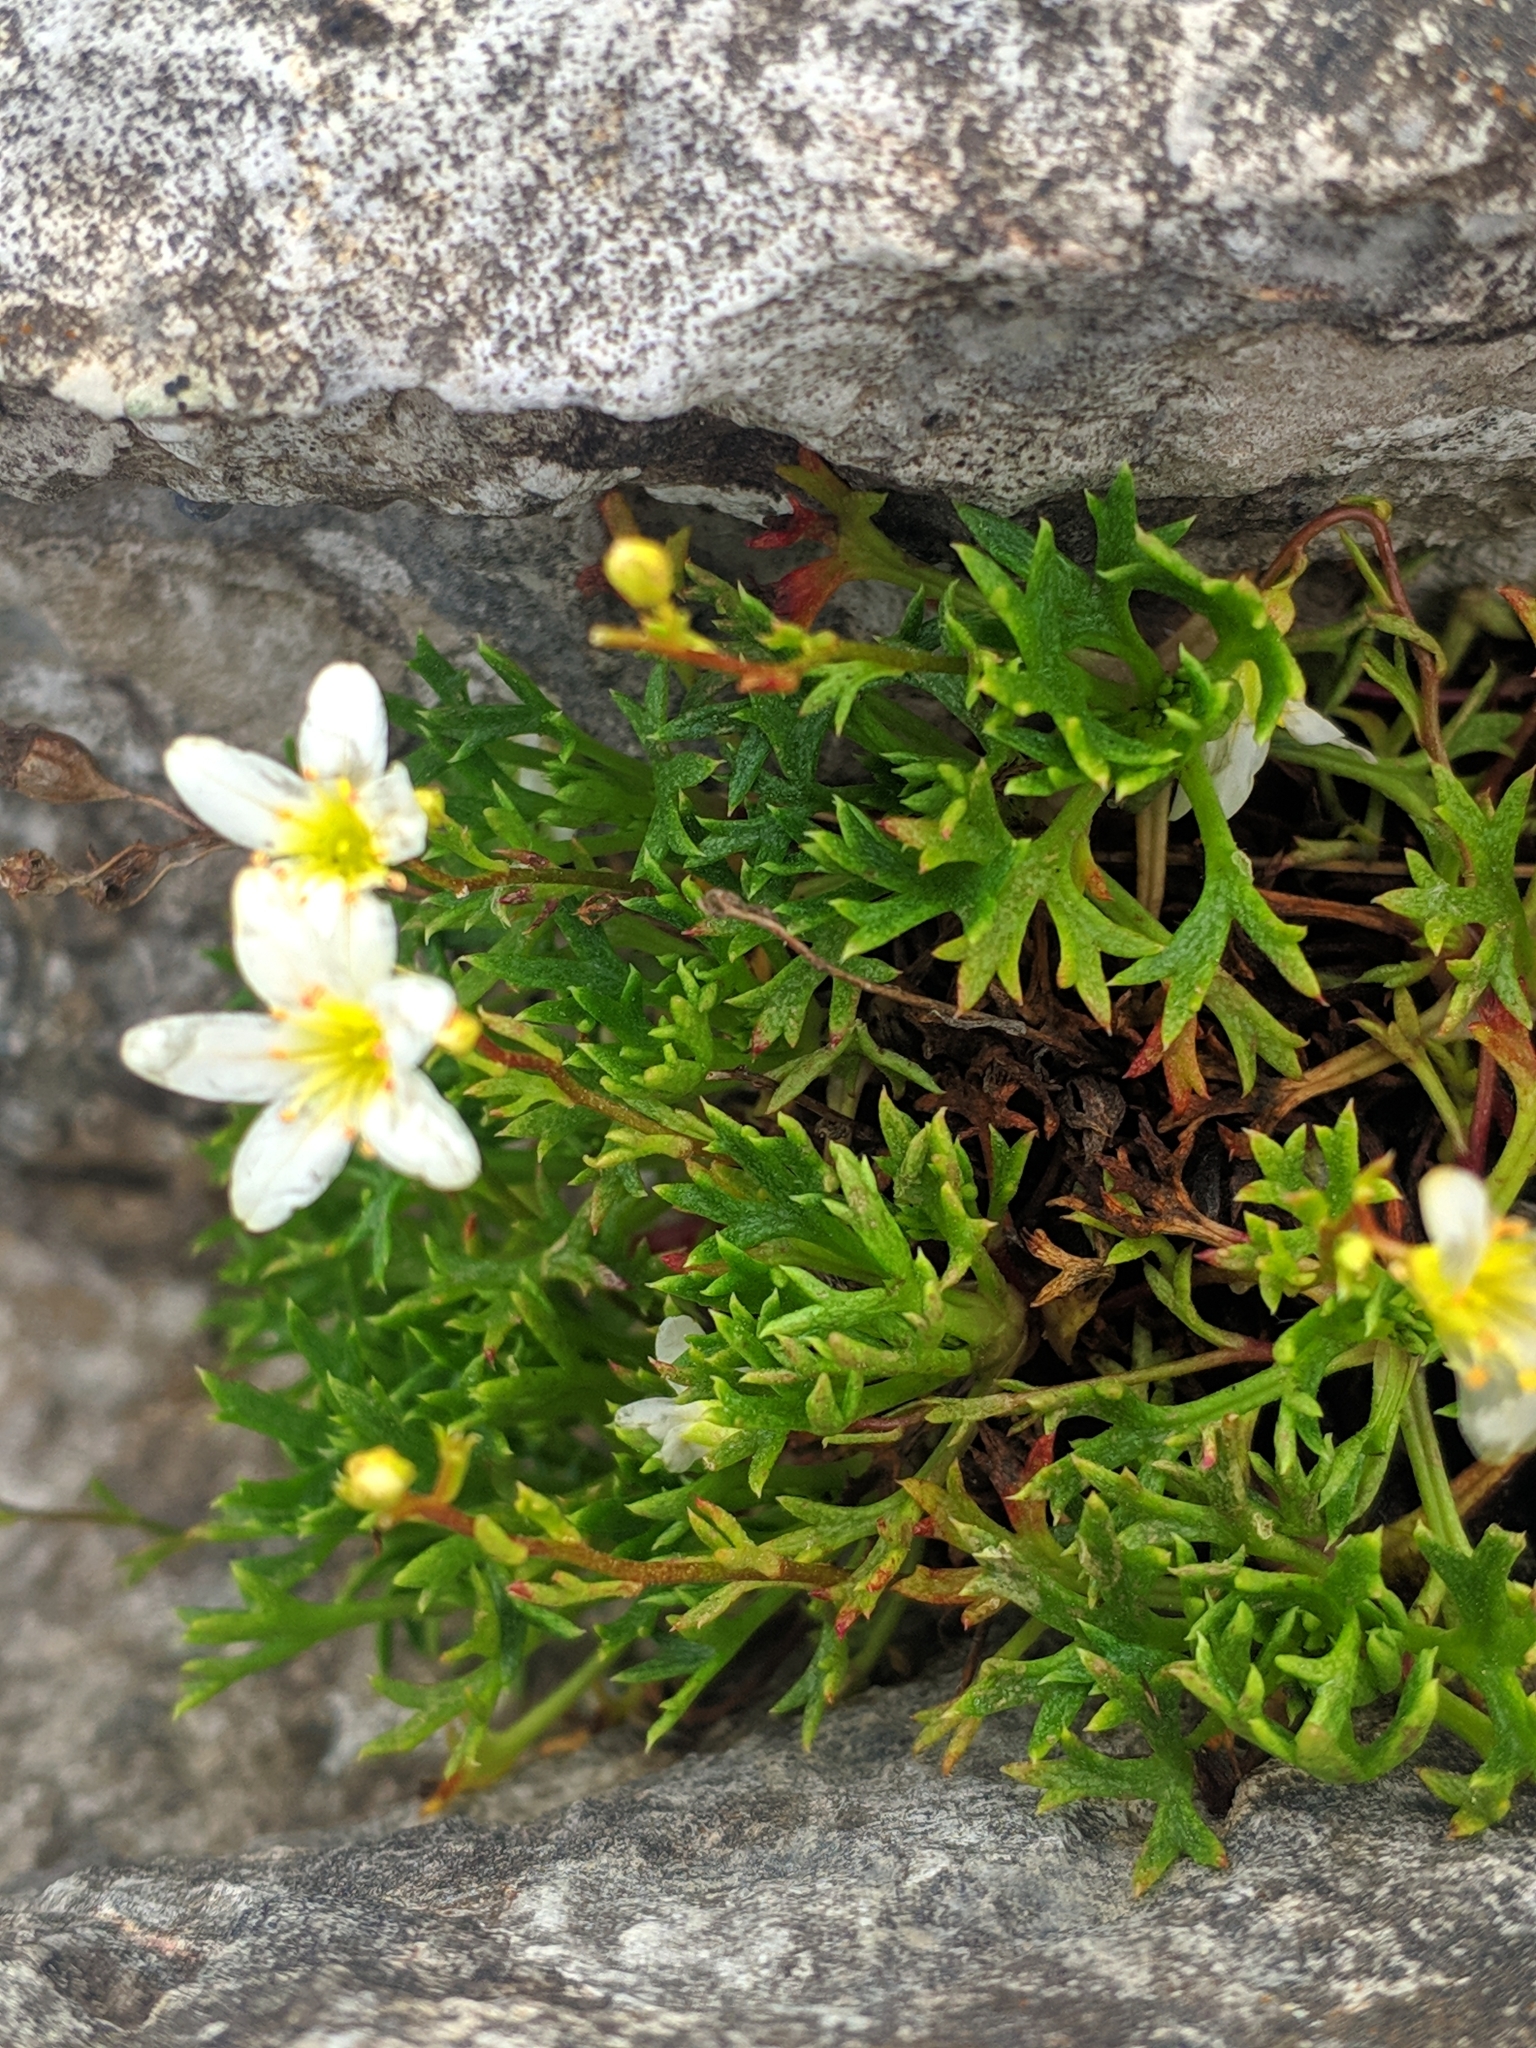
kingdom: Plantae
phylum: Tracheophyta
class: Magnoliopsida
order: Saxifragales
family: Saxifragaceae
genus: Saxifraga
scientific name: Saxifraga trifurcata
